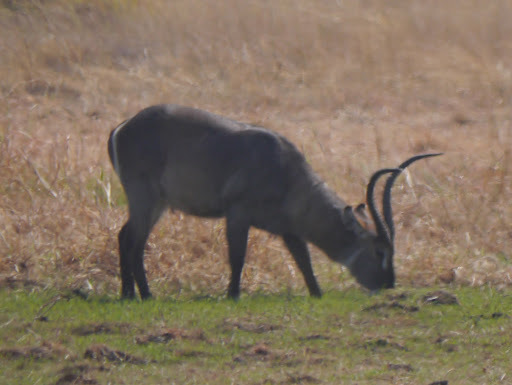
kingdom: Animalia
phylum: Chordata
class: Mammalia
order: Artiodactyla
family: Bovidae
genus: Kobus
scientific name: Kobus ellipsiprymnus
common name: Waterbuck
